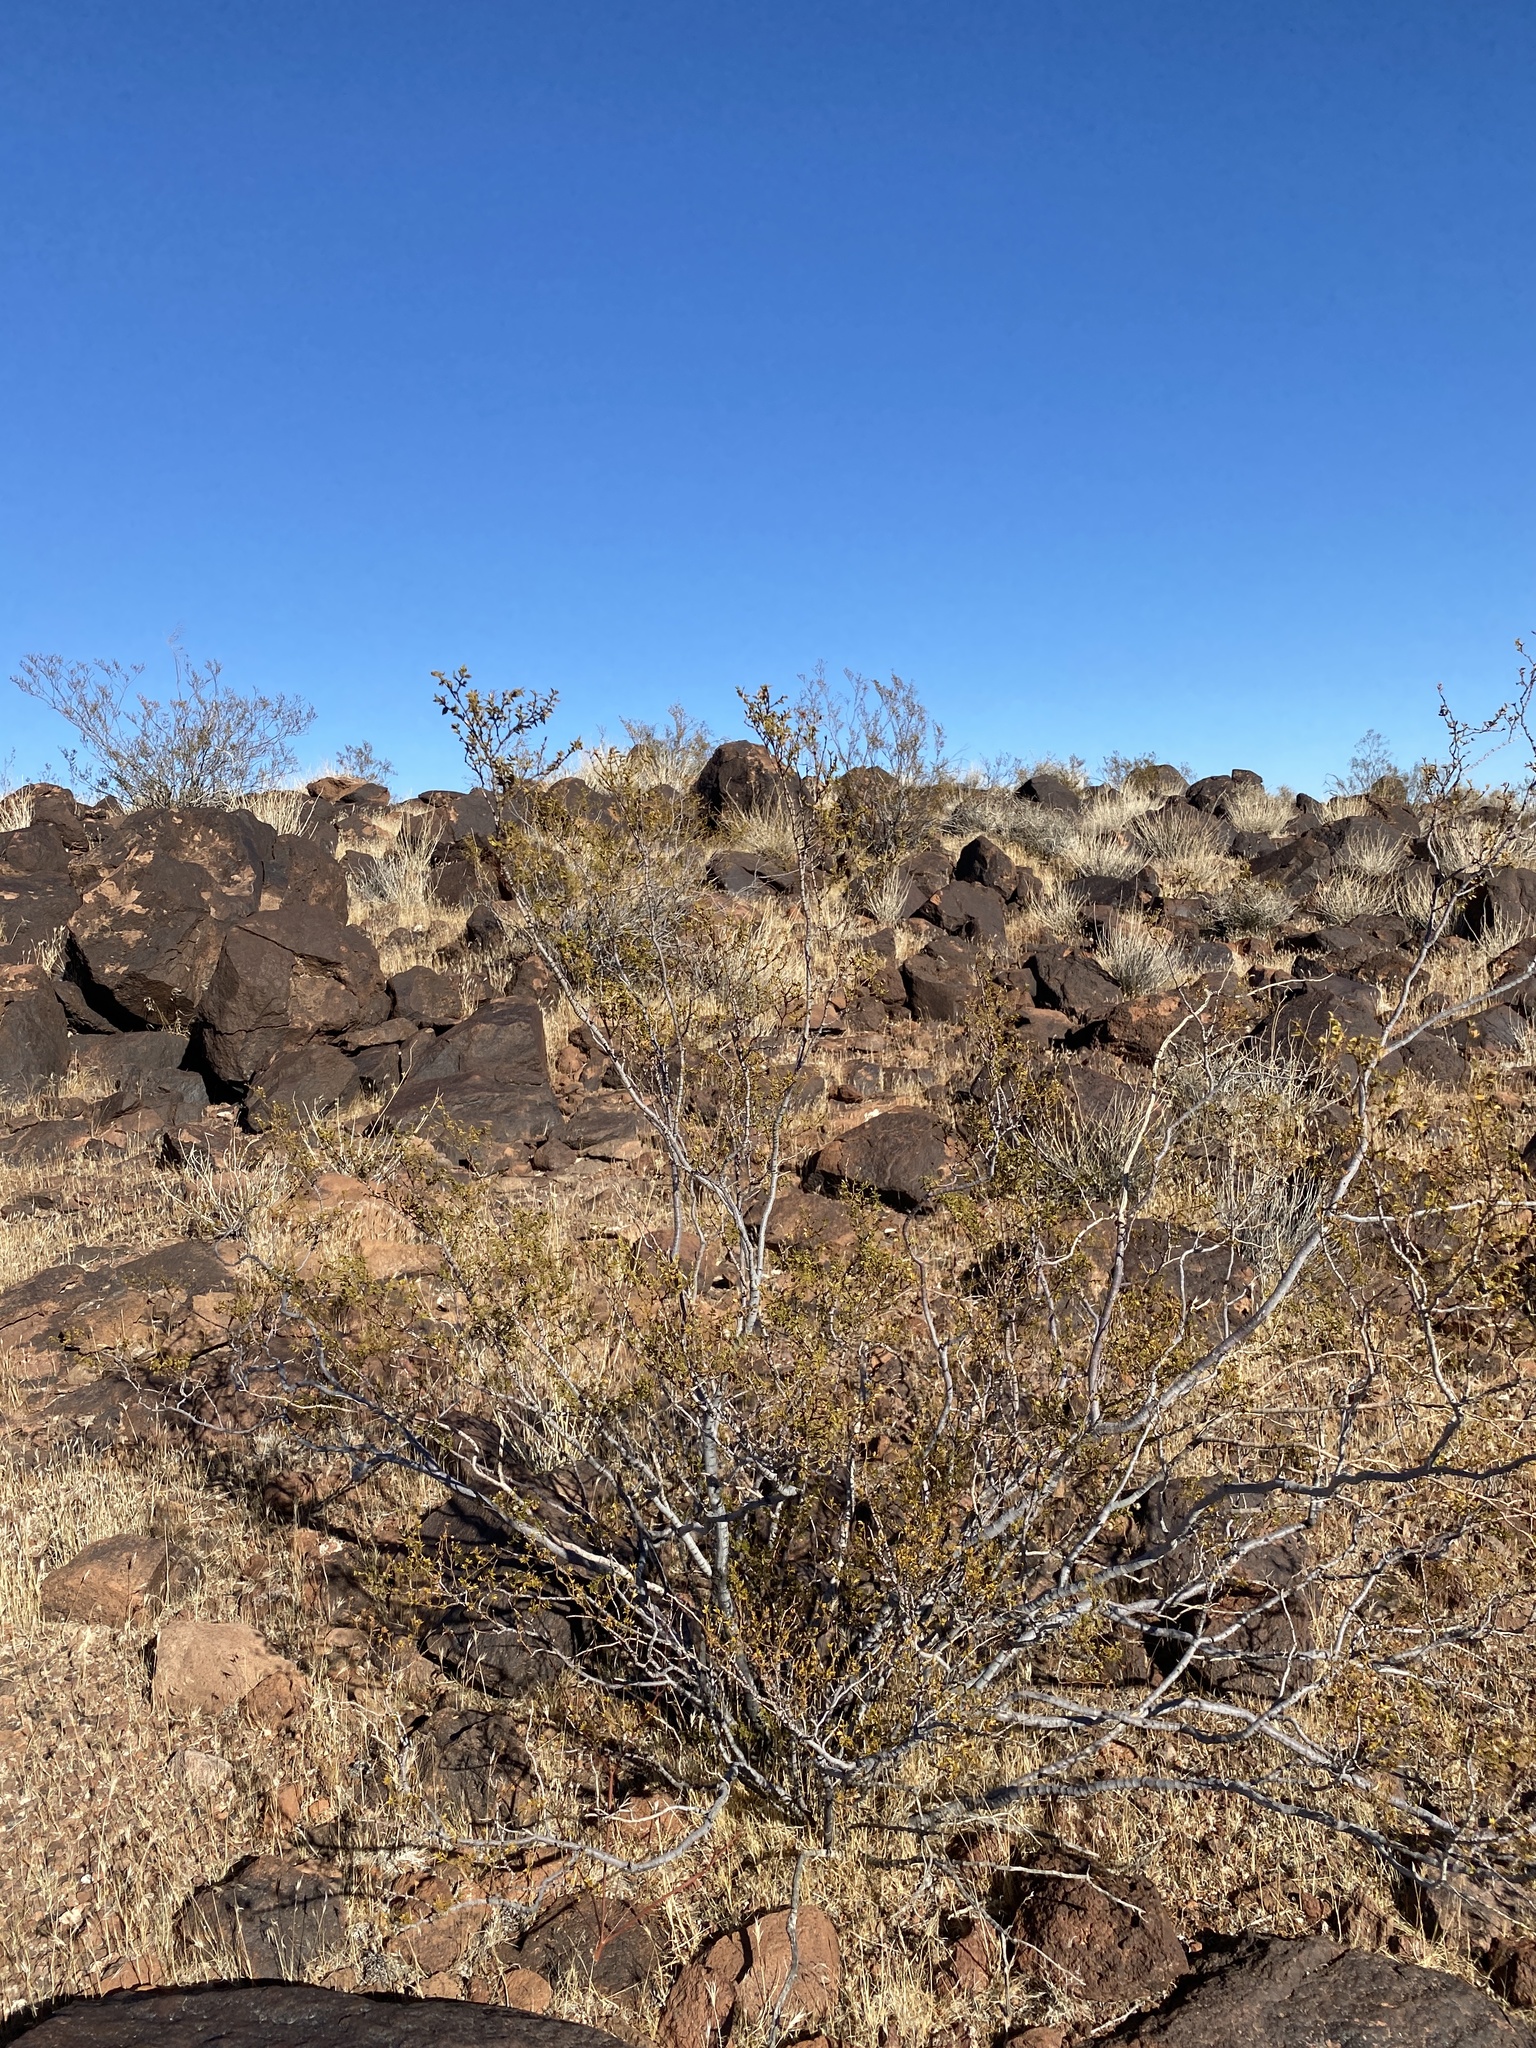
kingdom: Plantae
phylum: Tracheophyta
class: Magnoliopsida
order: Zygophyllales
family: Zygophyllaceae
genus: Larrea
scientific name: Larrea tridentata
